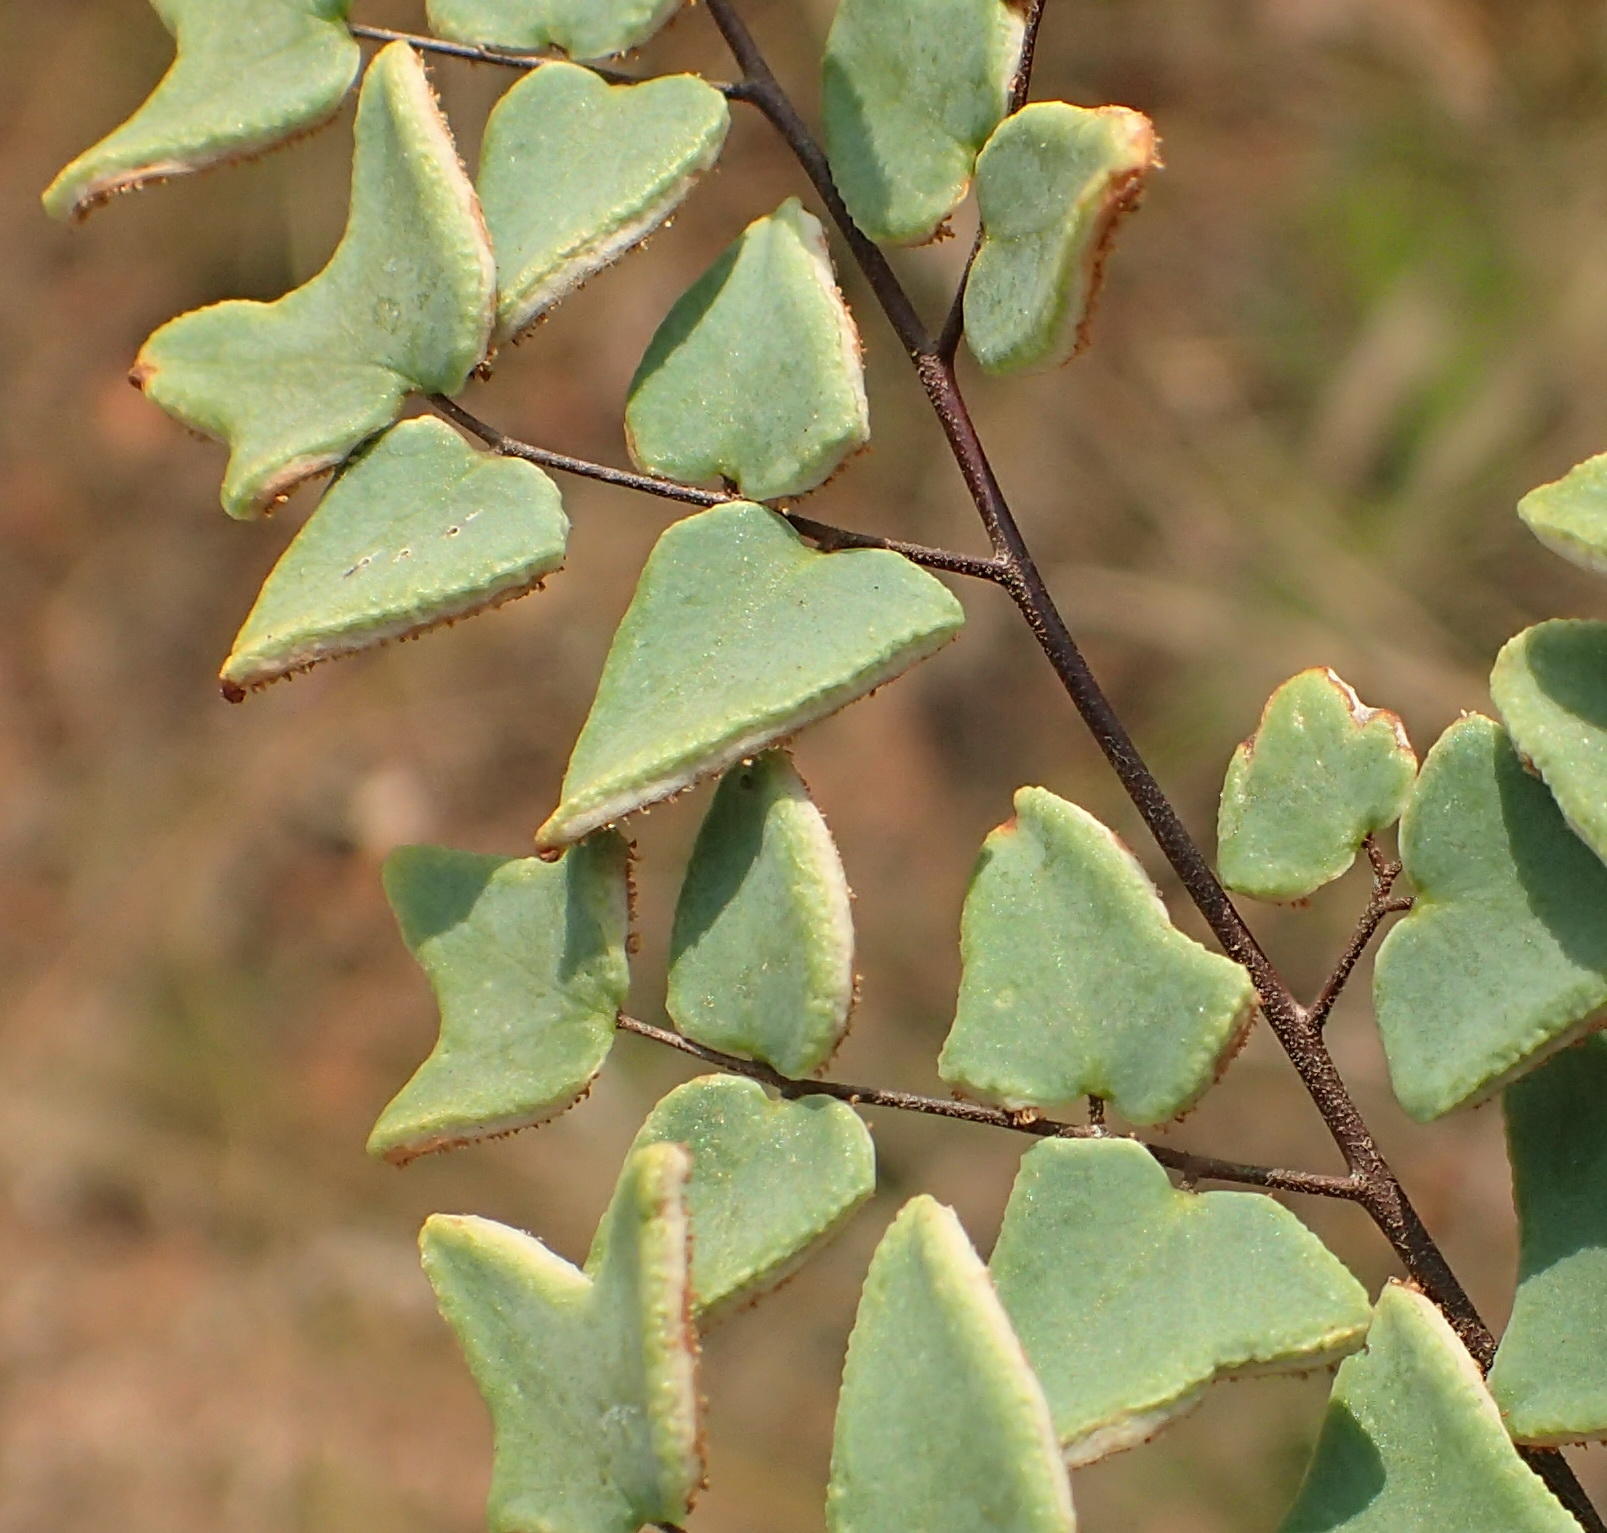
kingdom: Plantae
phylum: Tracheophyta
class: Polypodiopsida
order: Polypodiales
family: Pteridaceae
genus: Pellaea
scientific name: Pellaea calomelanos
